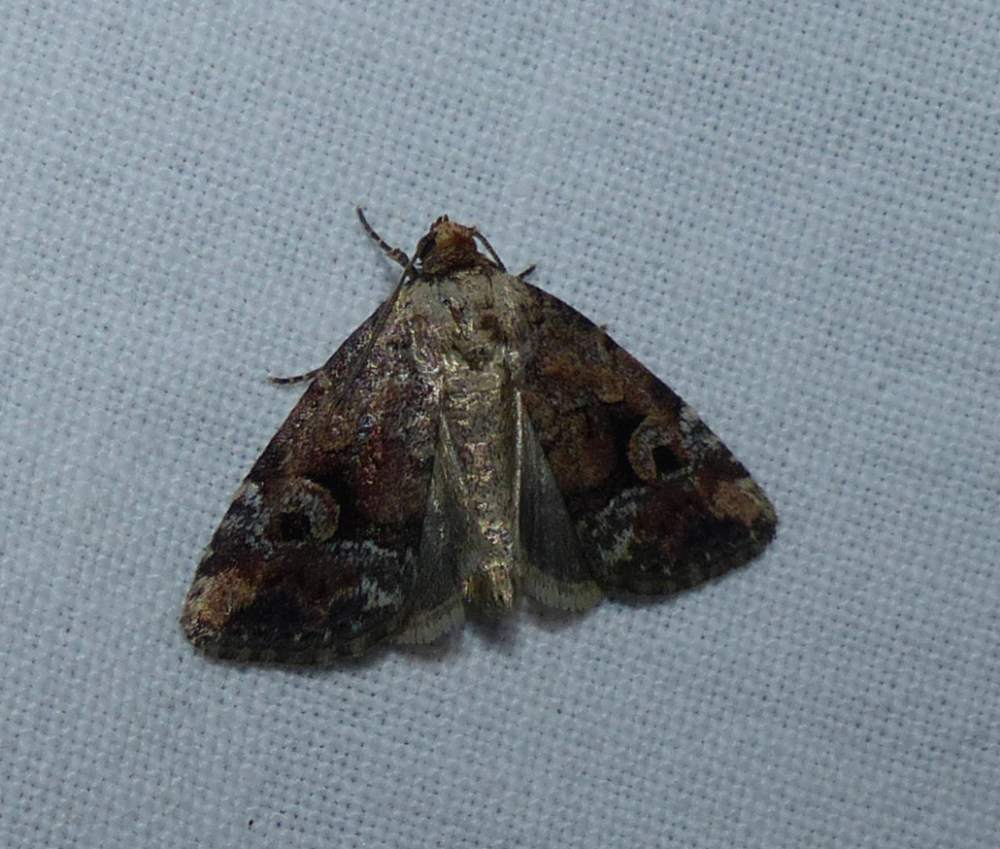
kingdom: Animalia
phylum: Arthropoda
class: Insecta
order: Lepidoptera
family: Noctuidae
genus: Elaphria
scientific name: Elaphria alapallida
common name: Pale-winged midget
